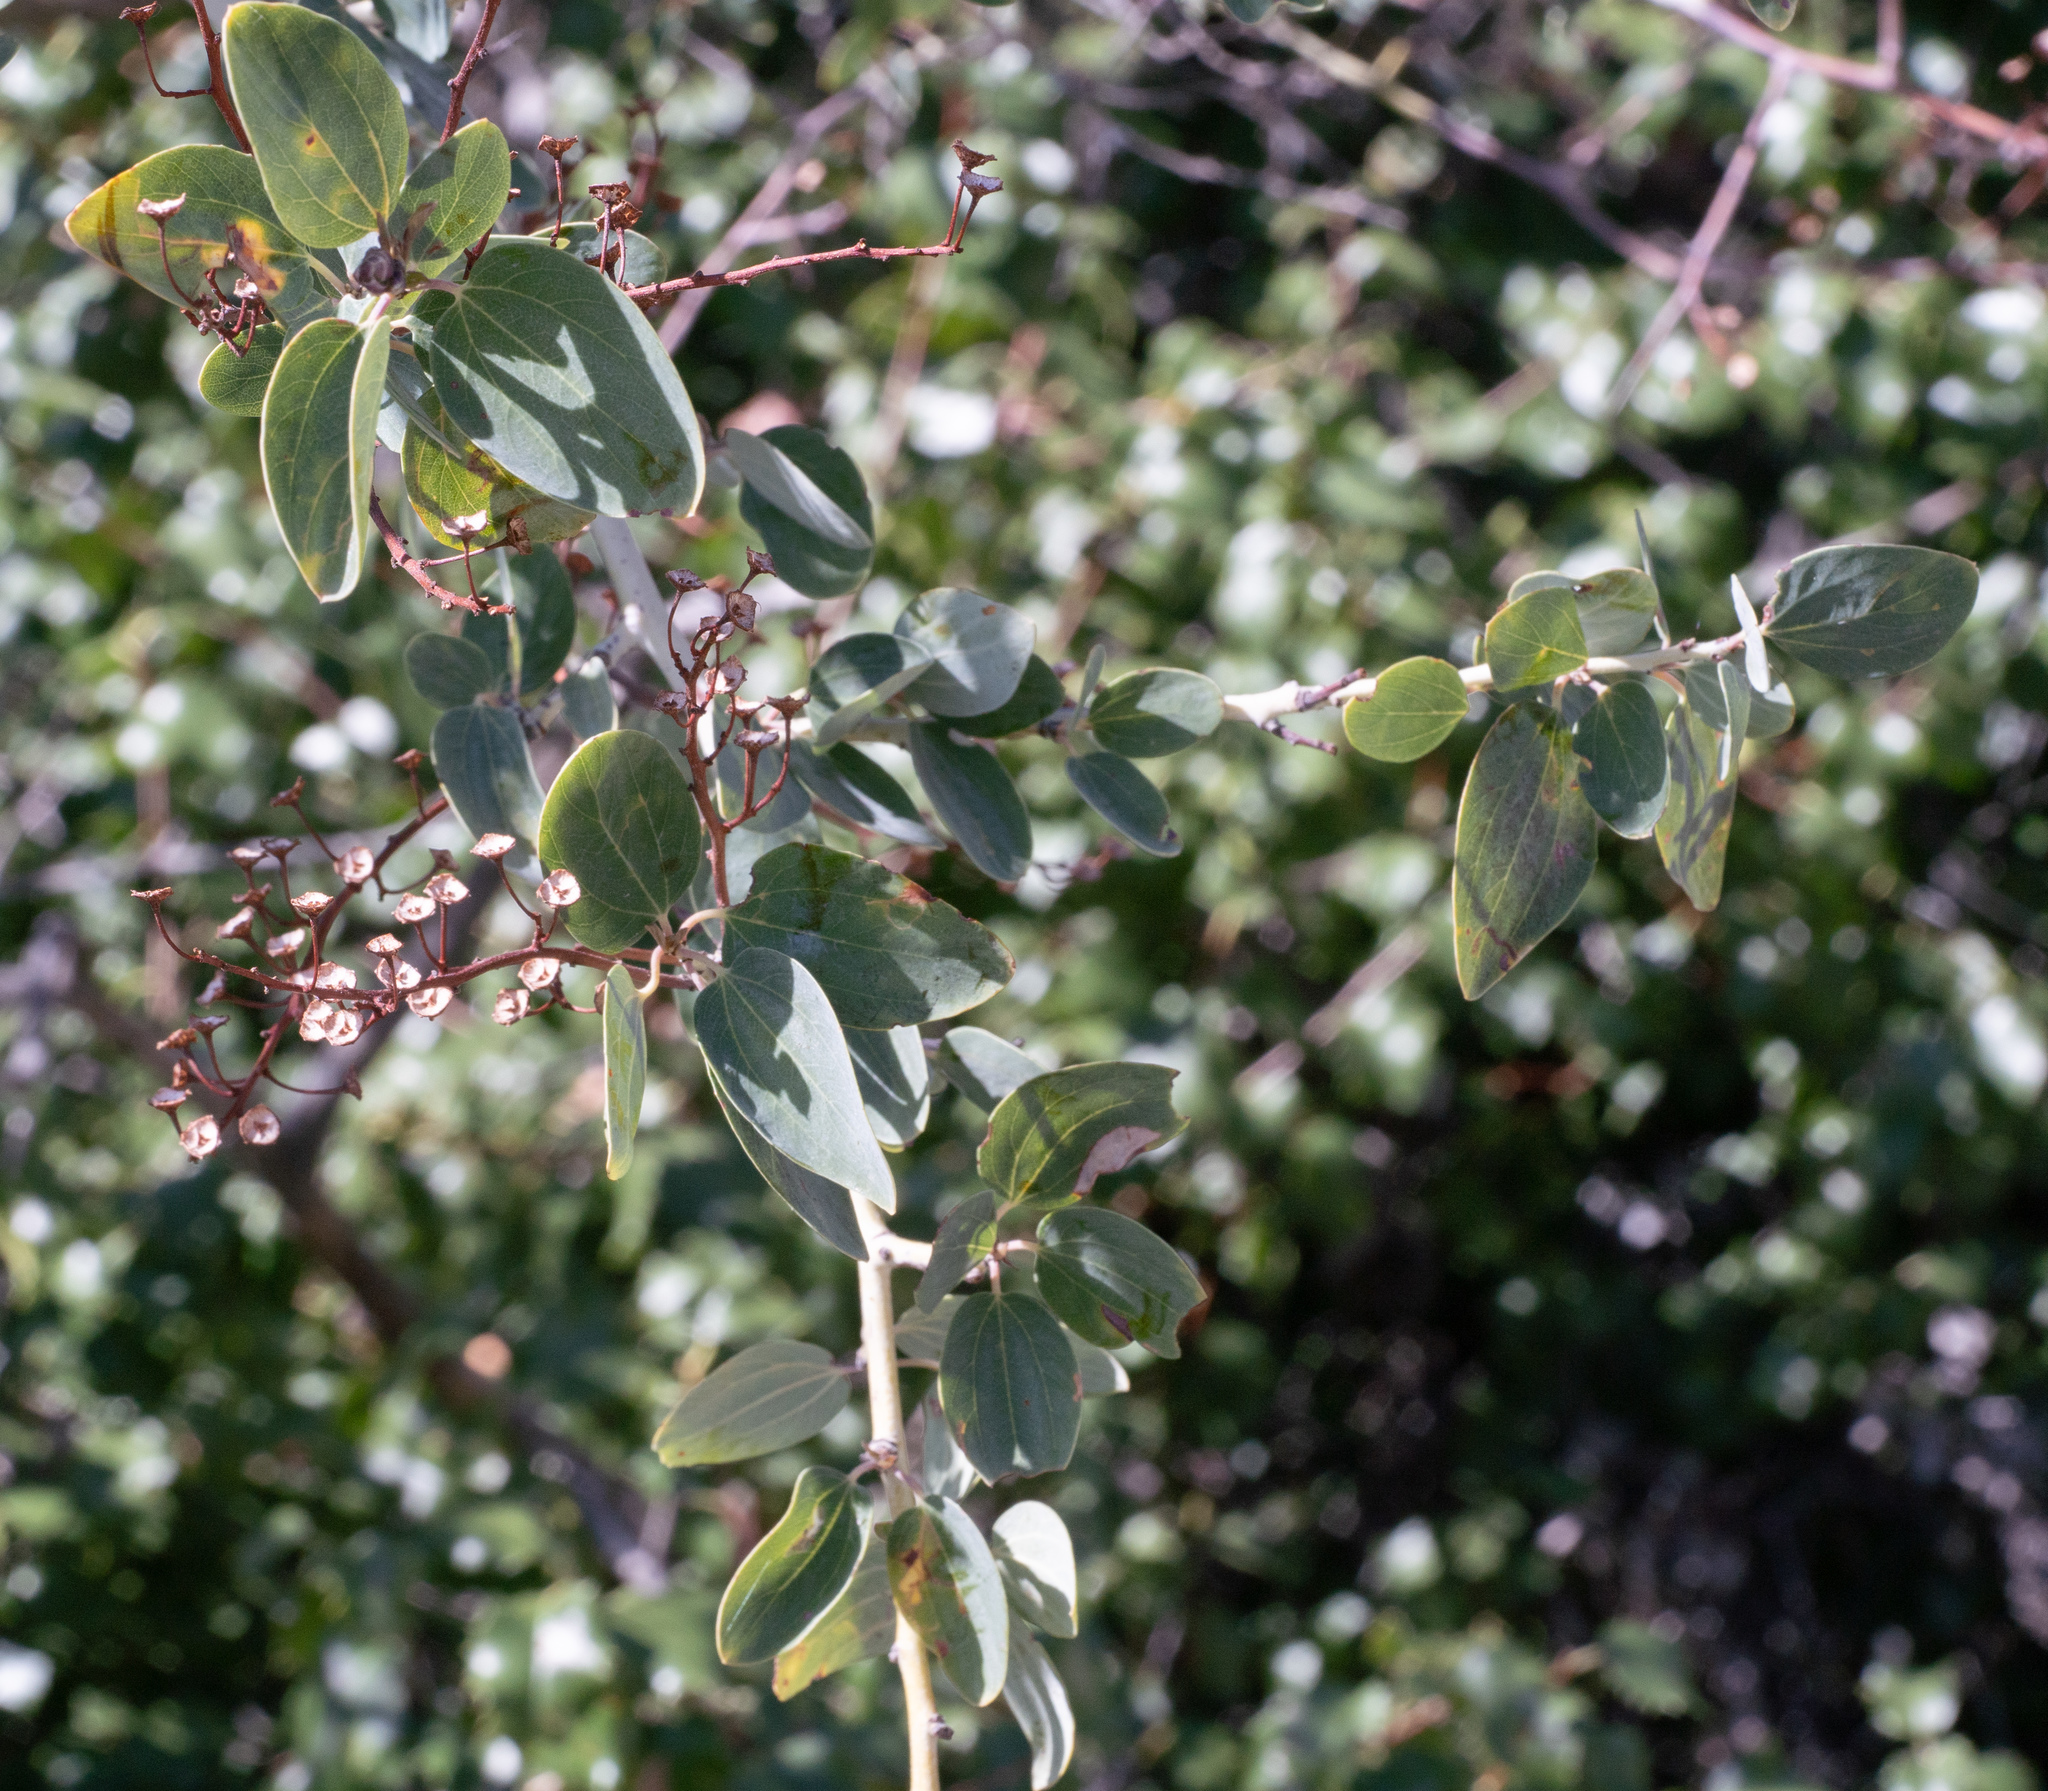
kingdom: Plantae
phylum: Tracheophyta
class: Magnoliopsida
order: Rosales
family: Rhamnaceae
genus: Ceanothus
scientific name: Ceanothus leucodermis
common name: Chaparral whitethorn
